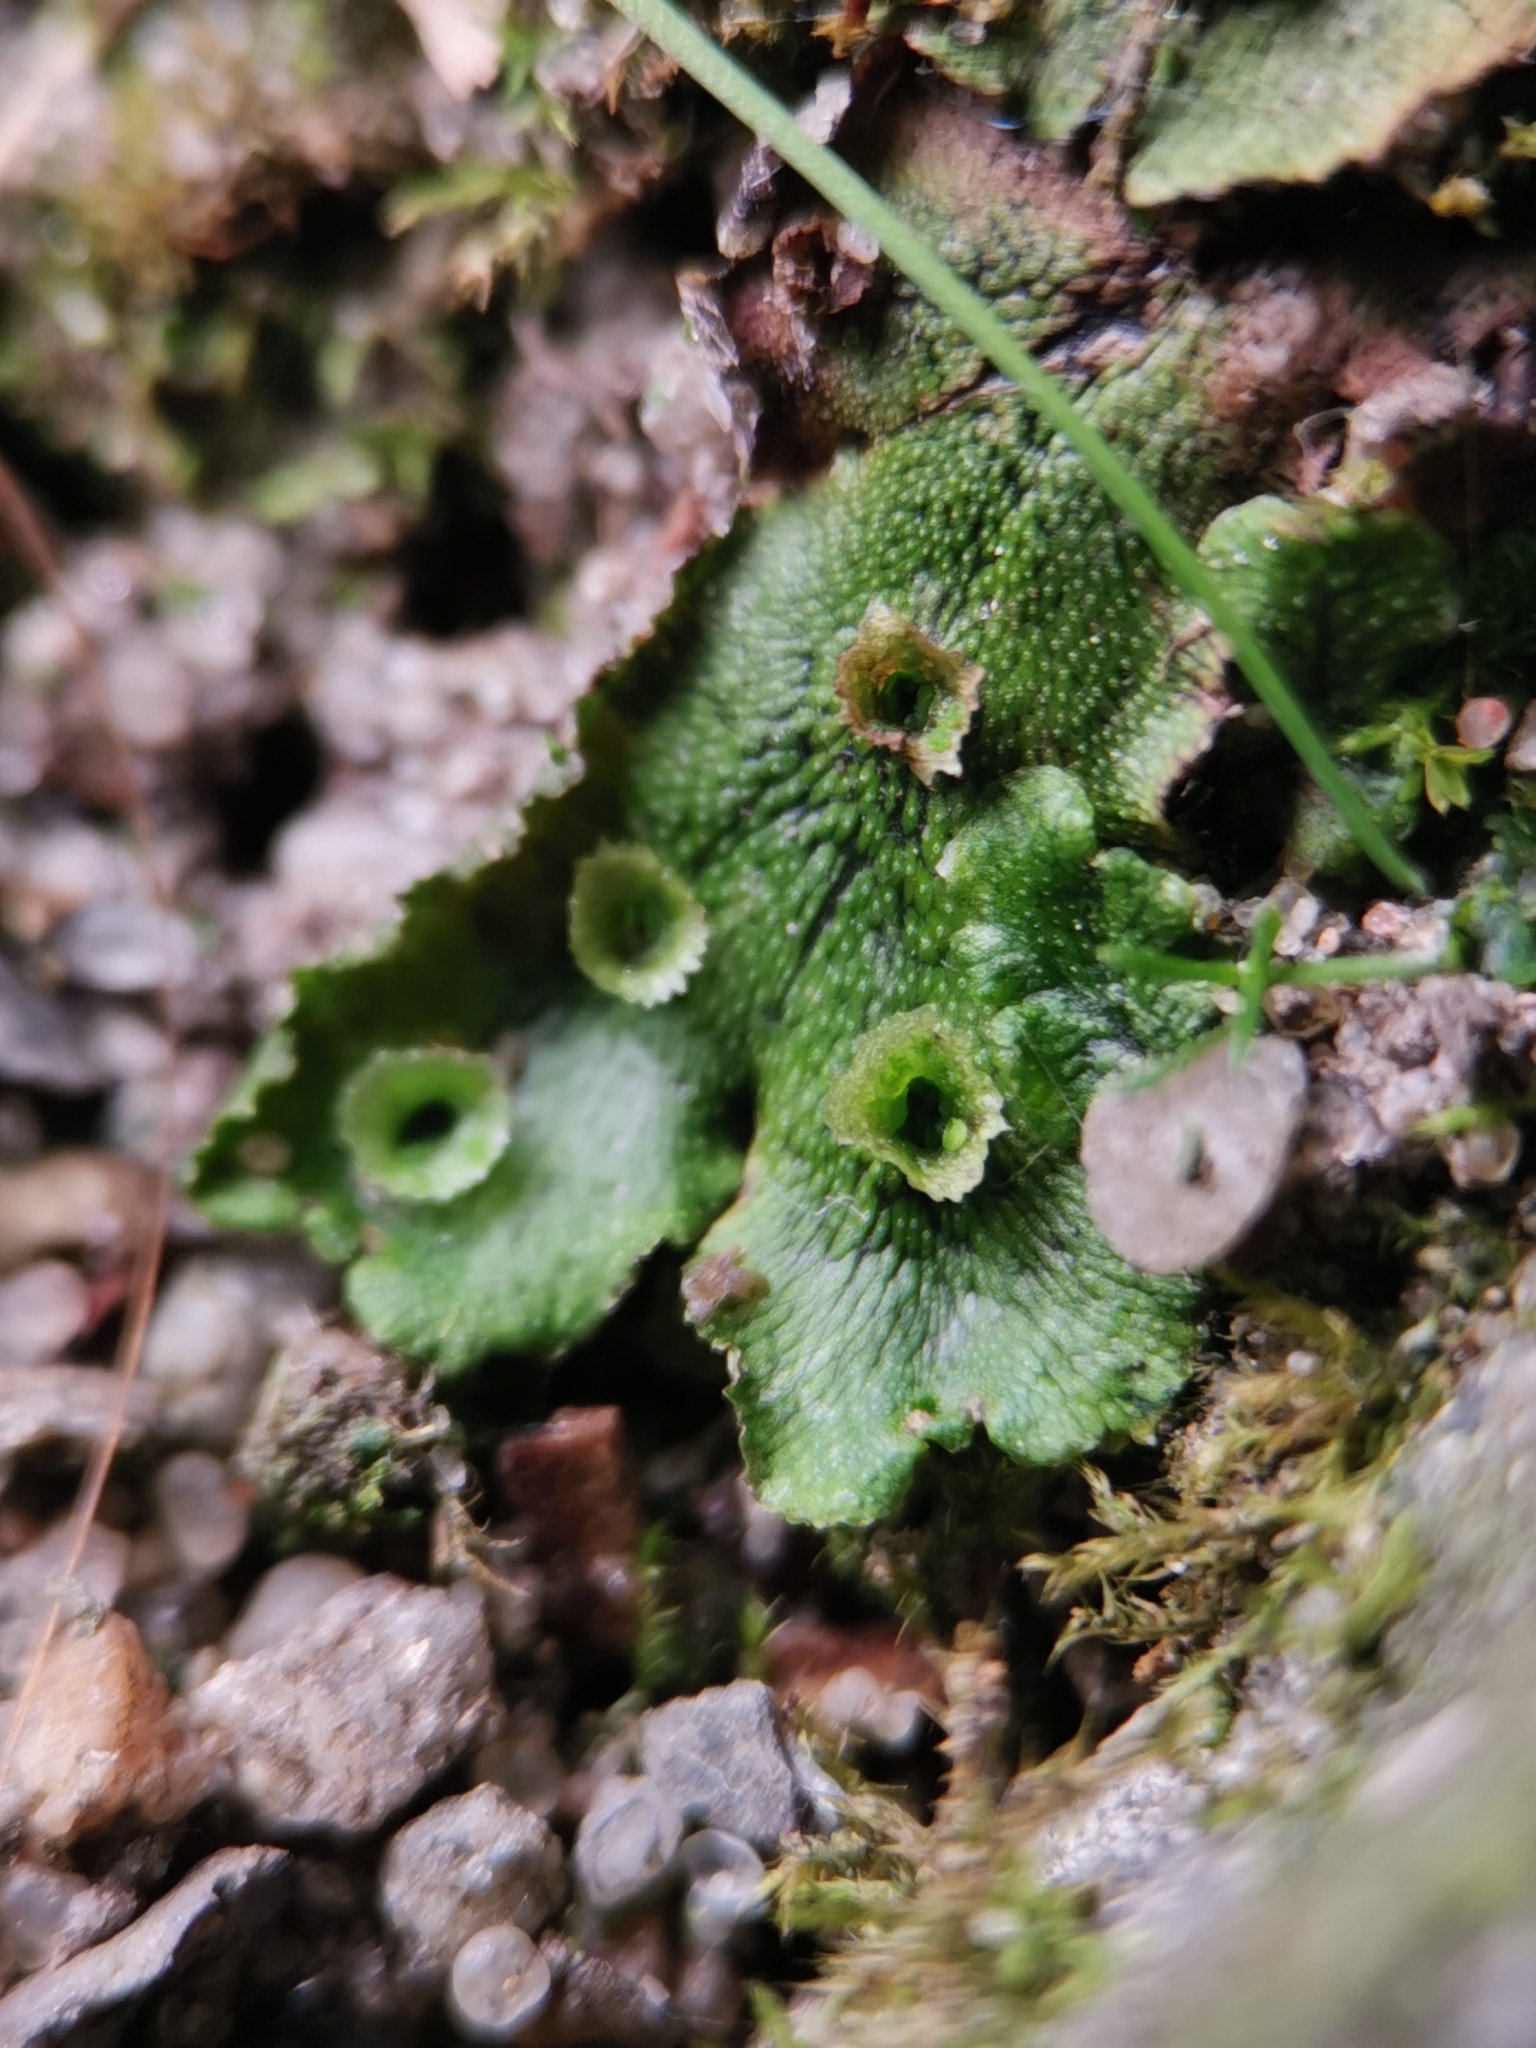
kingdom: Plantae
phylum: Marchantiophyta
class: Marchantiopsida
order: Marchantiales
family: Marchantiaceae
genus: Marchantia
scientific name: Marchantia polymorpha
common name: Common liverwort
